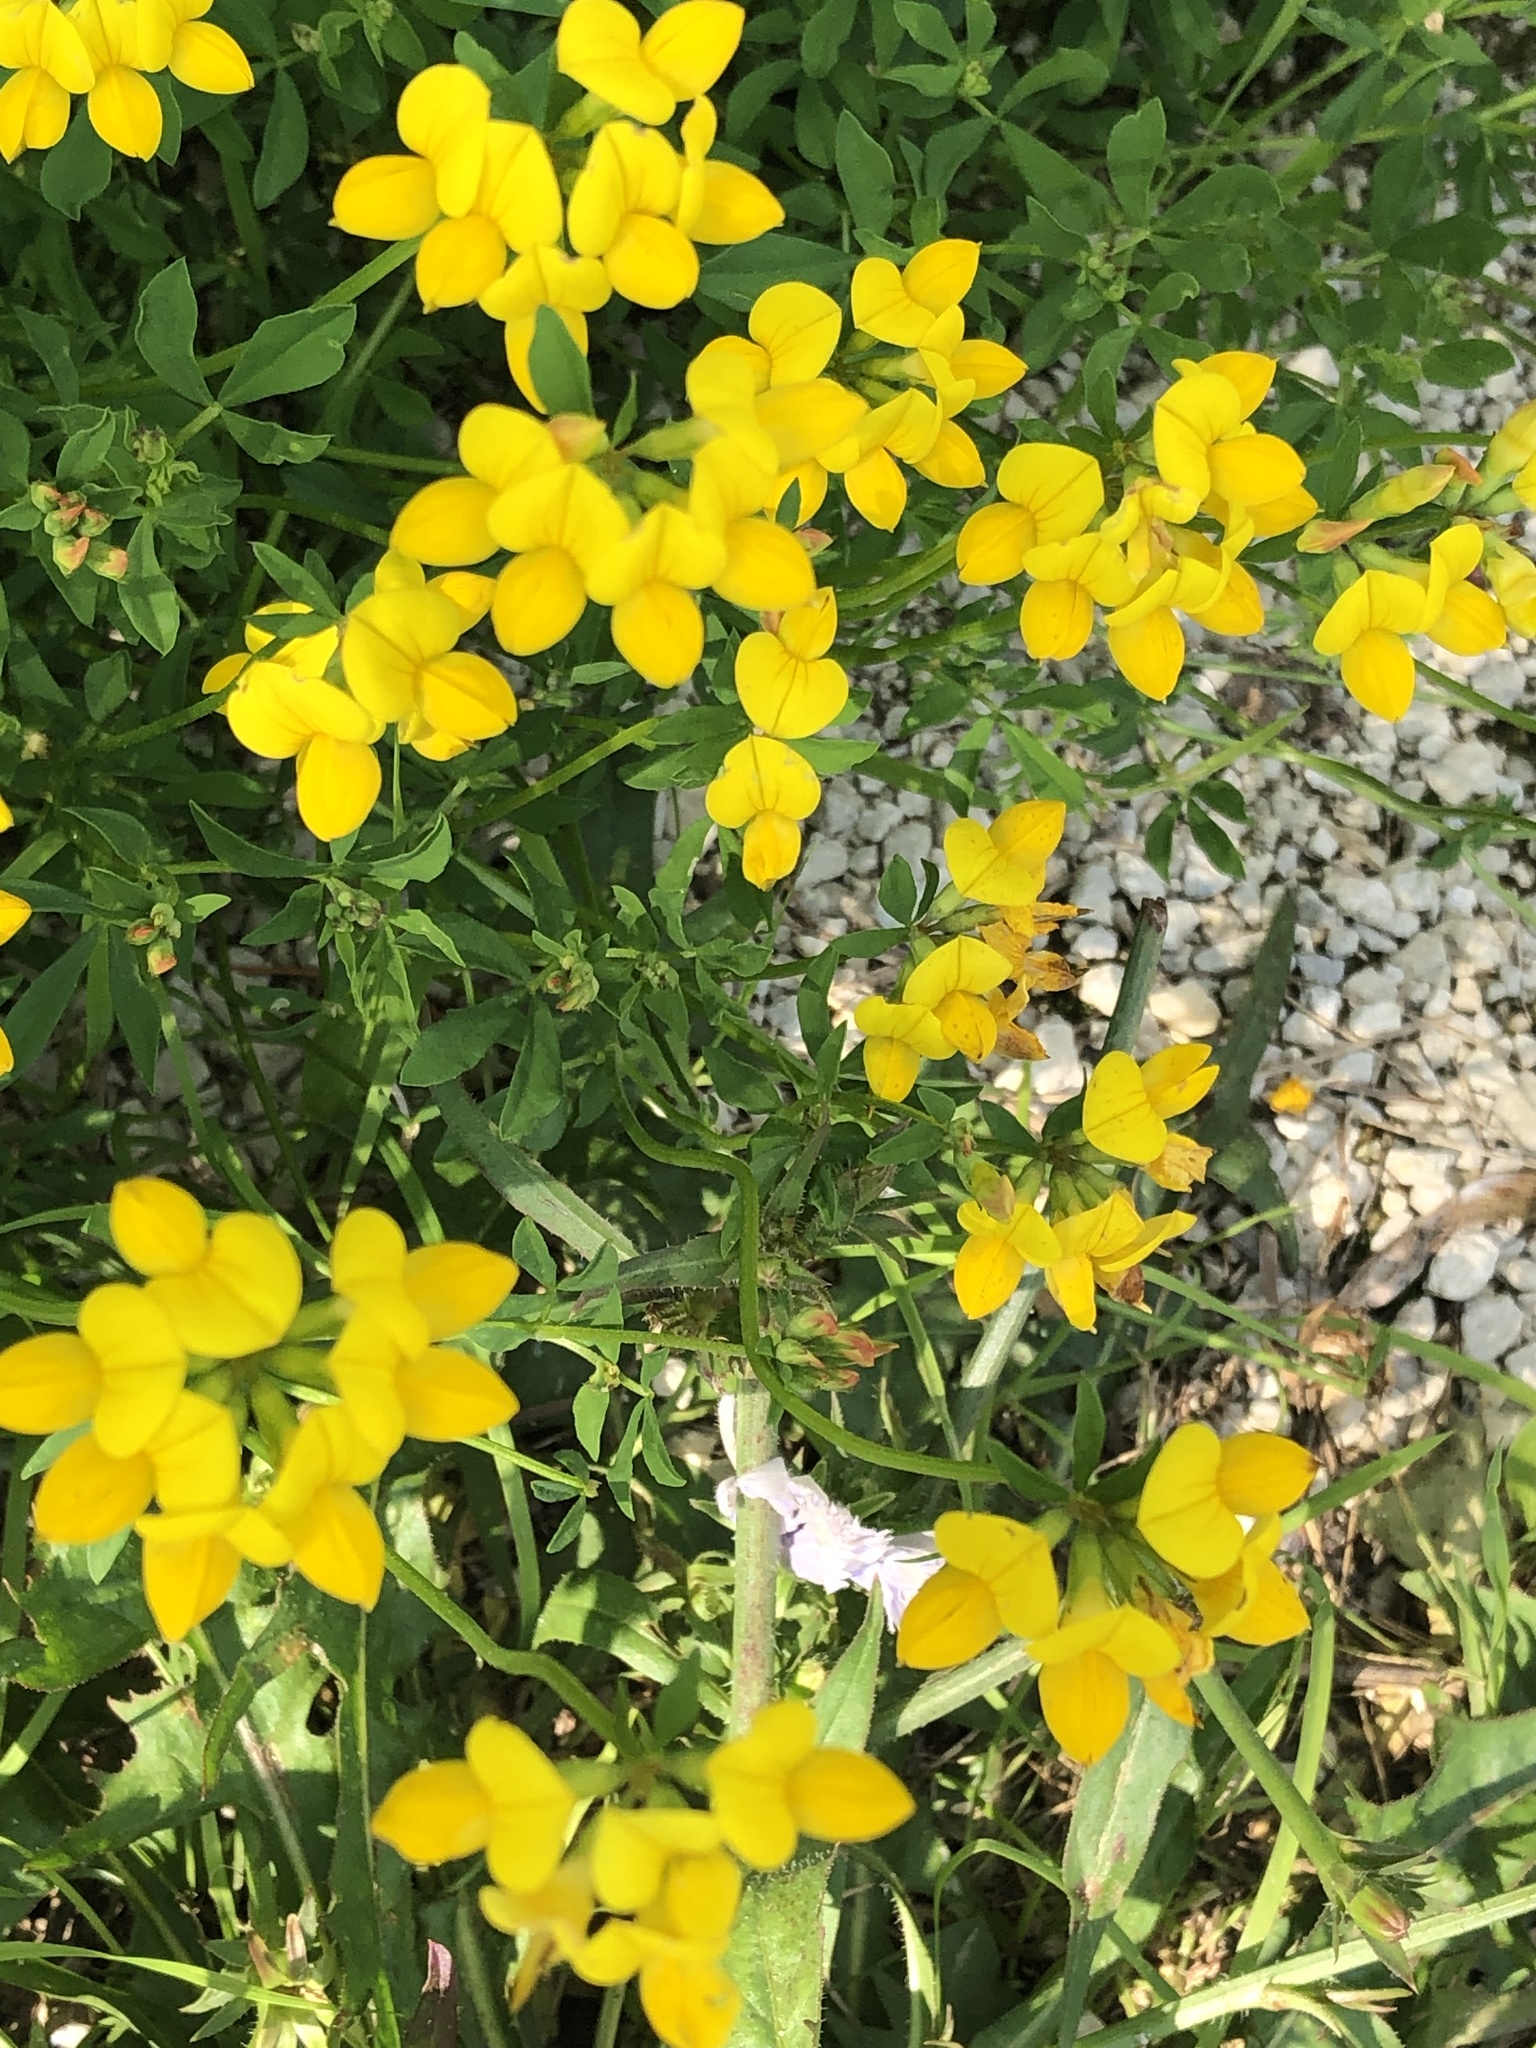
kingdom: Plantae
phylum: Tracheophyta
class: Magnoliopsida
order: Fabales
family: Fabaceae
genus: Lotus
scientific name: Lotus corniculatus
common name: Common bird's-foot-trefoil
